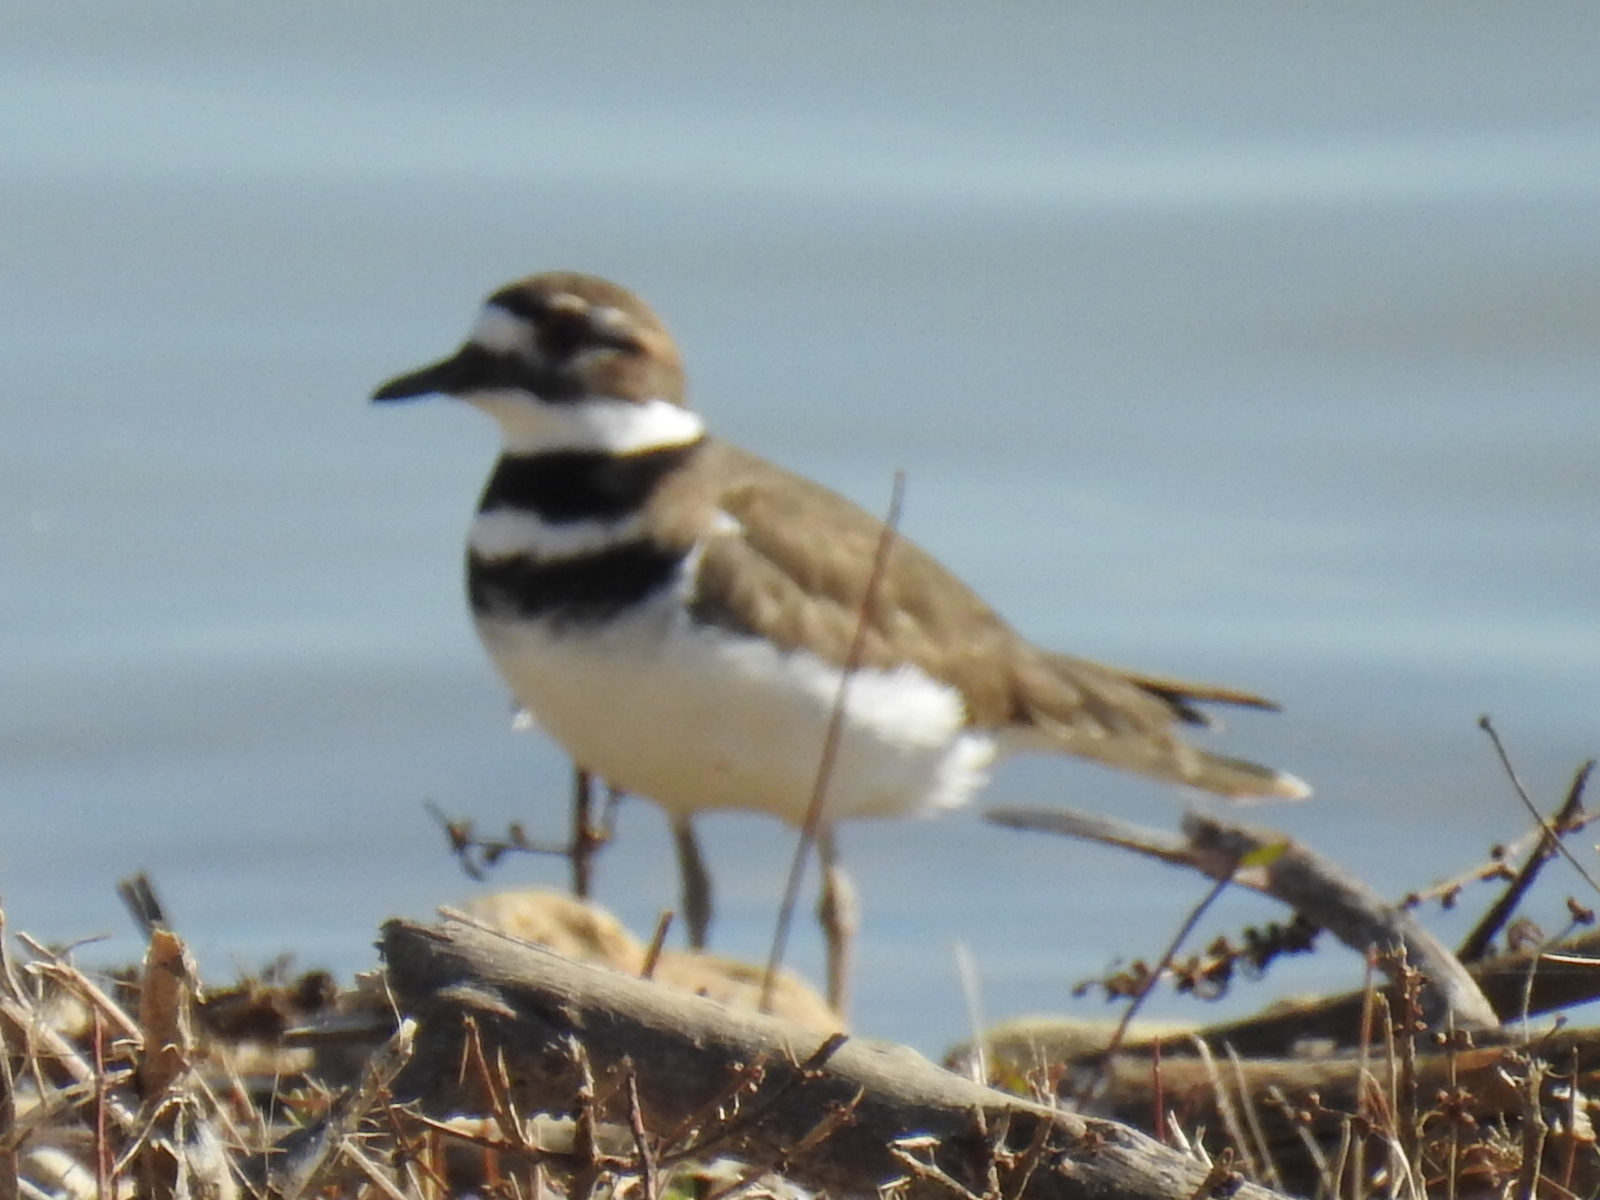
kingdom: Animalia
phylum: Chordata
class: Aves
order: Charadriiformes
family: Charadriidae
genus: Charadrius
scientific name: Charadrius vociferus
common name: Killdeer
